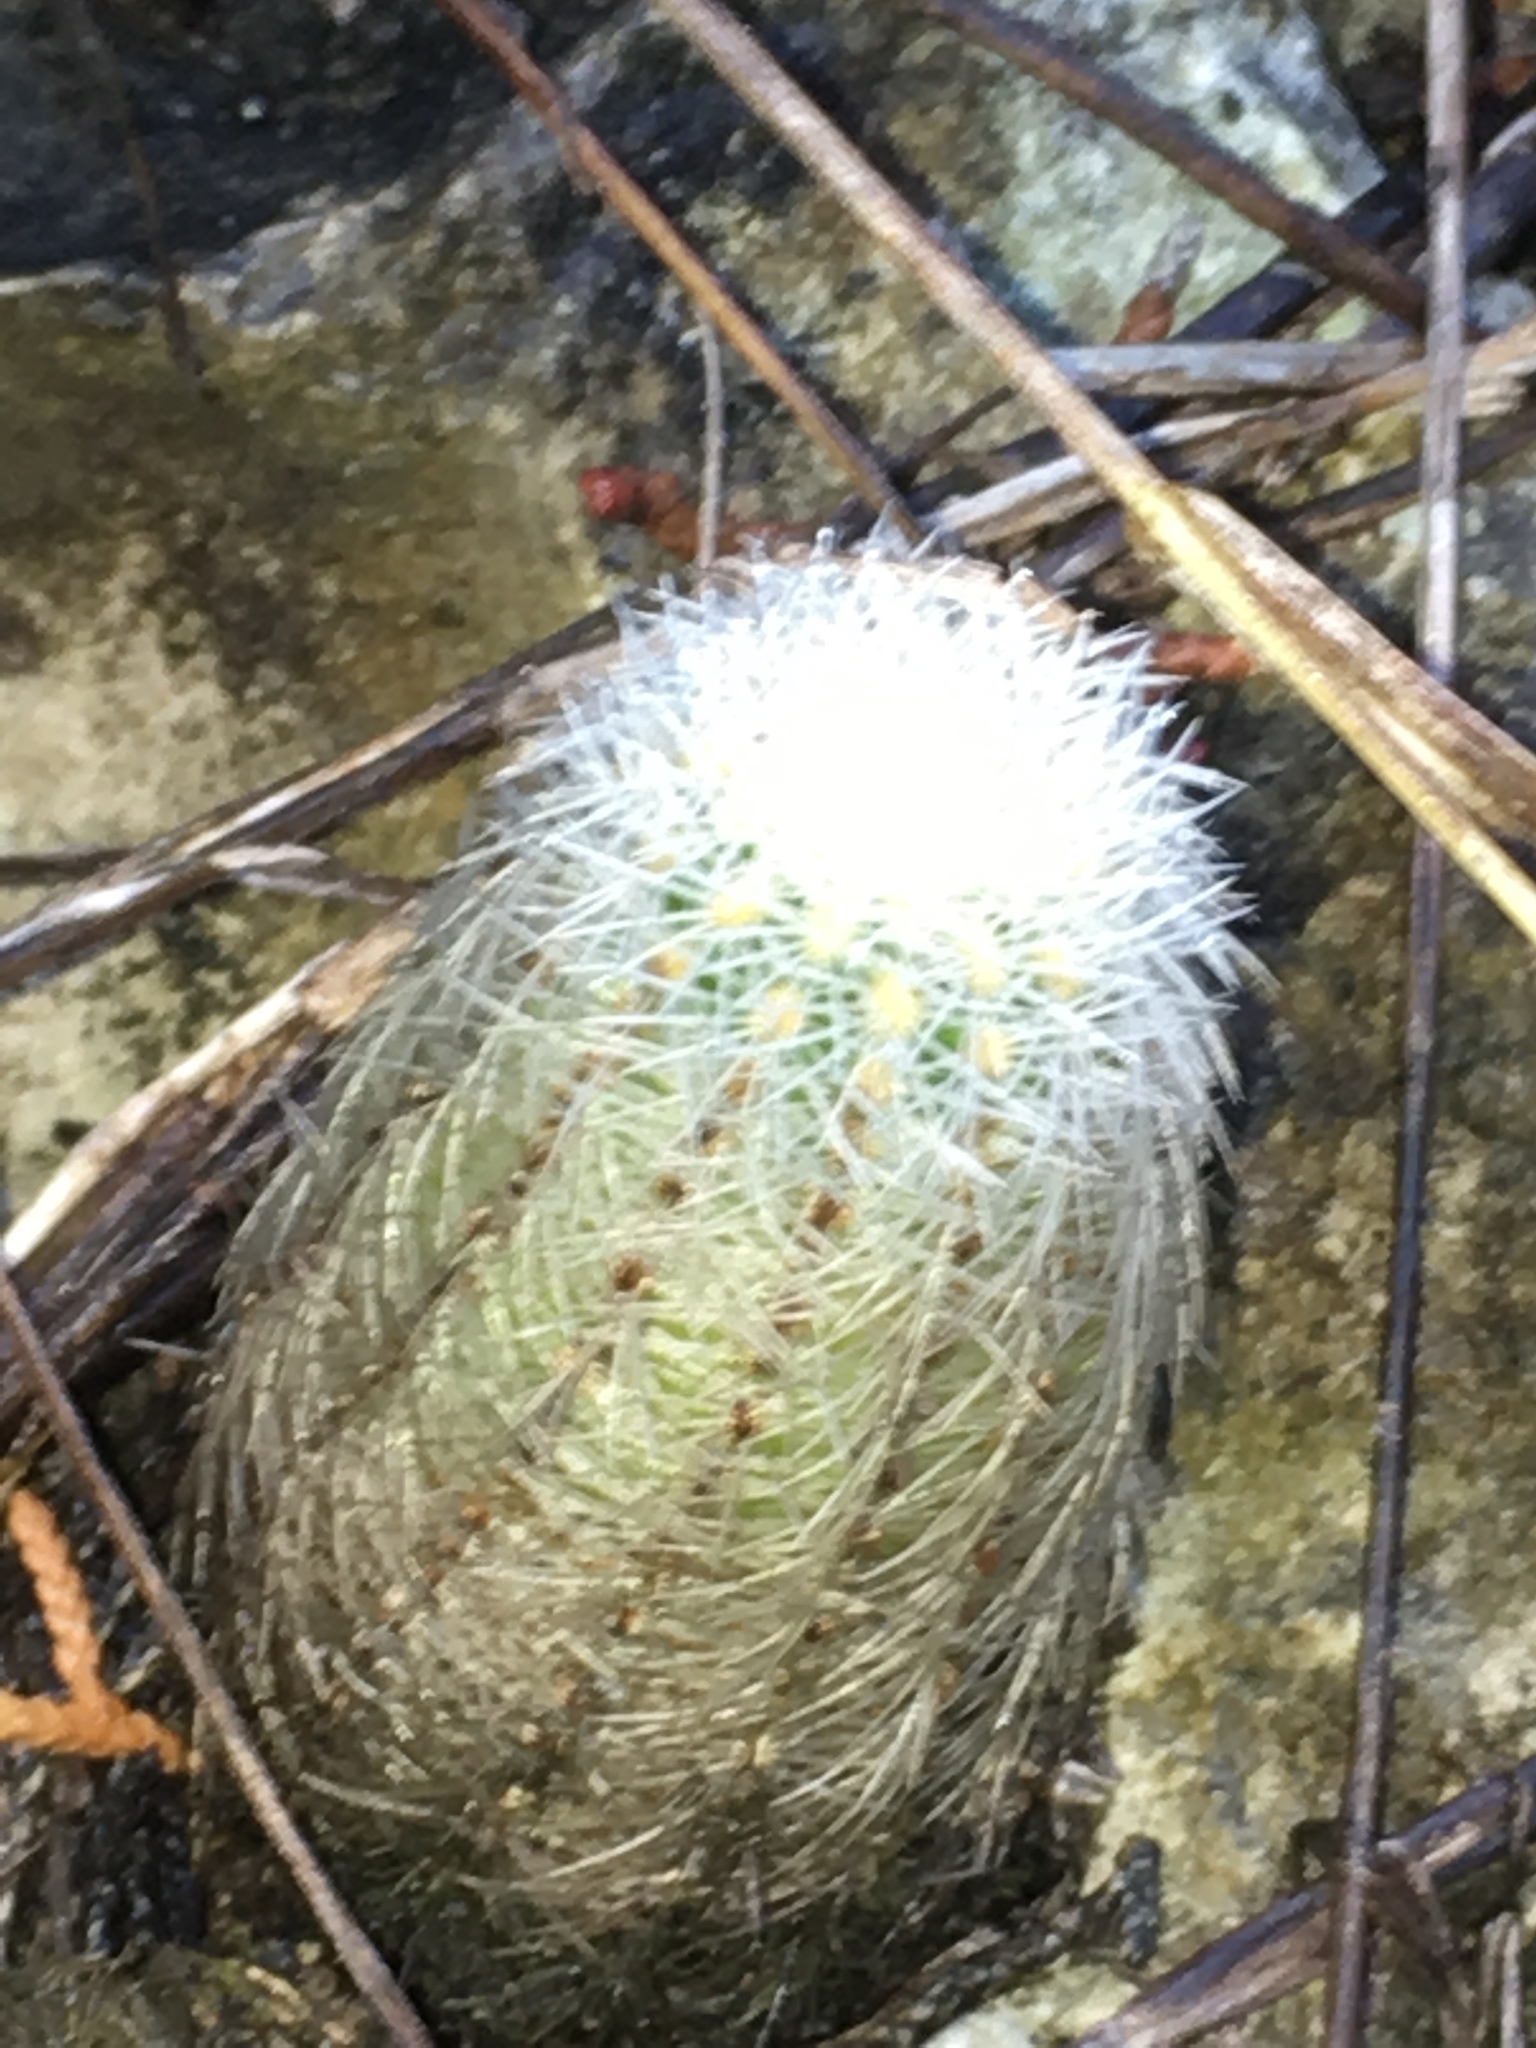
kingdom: Plantae
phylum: Tracheophyta
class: Magnoliopsida
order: Caryophyllales
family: Cactaceae
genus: Echinocereus
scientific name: Echinocereus reichenbachii
